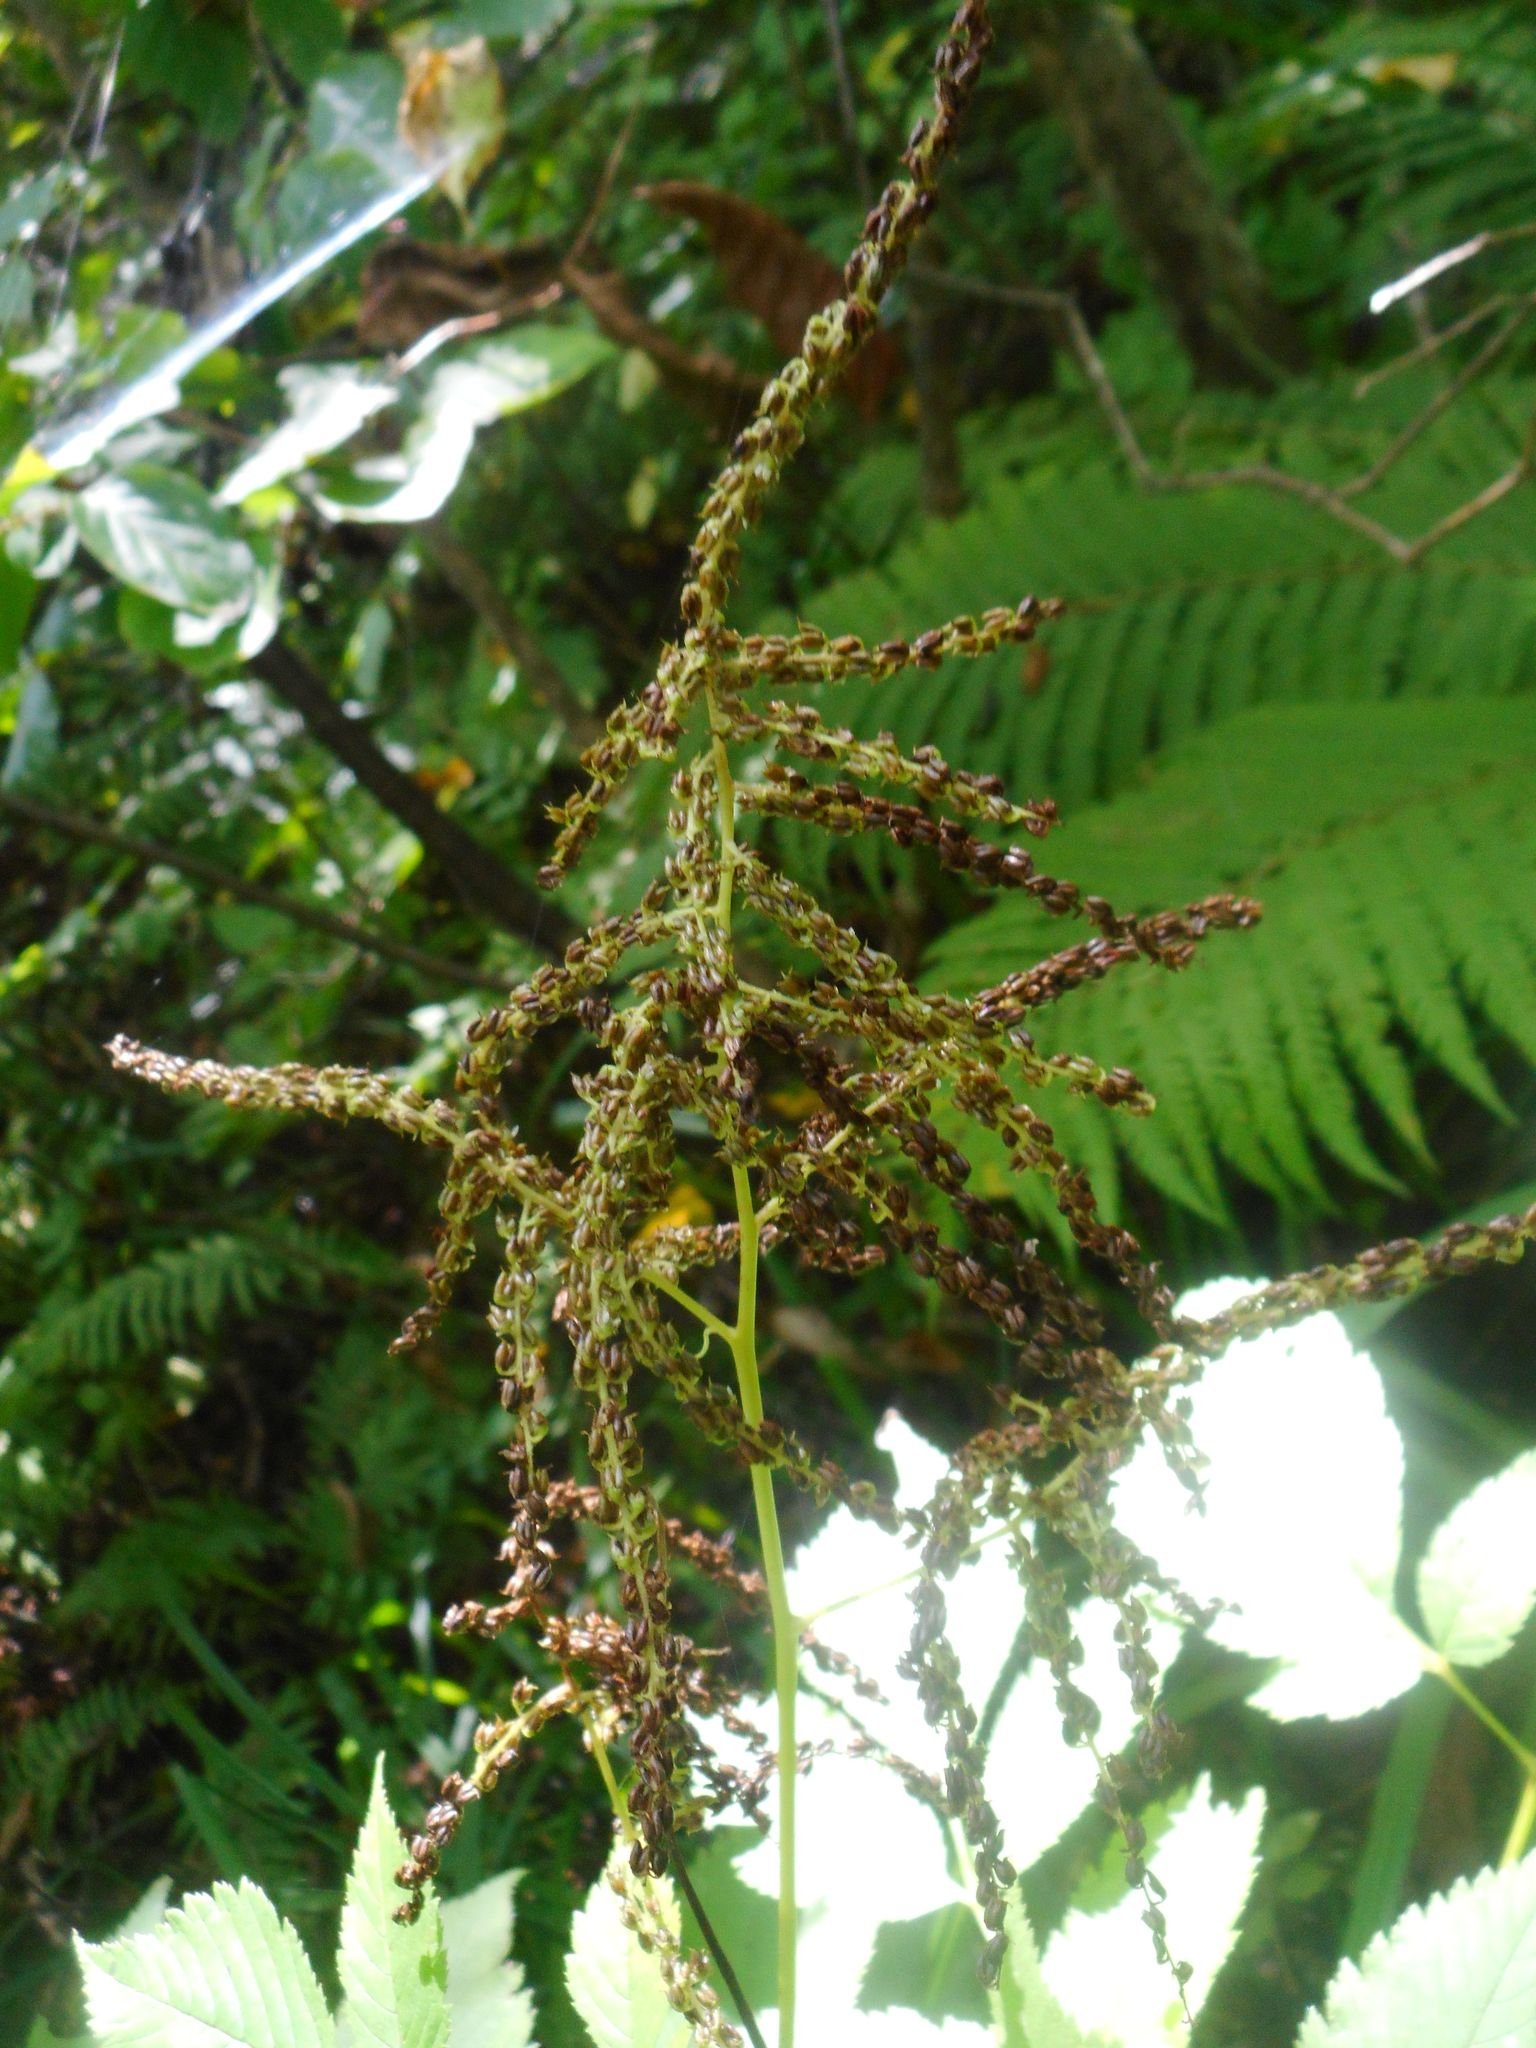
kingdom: Plantae
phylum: Tracheophyta
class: Magnoliopsida
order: Rosales
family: Rosaceae
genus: Aruncus
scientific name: Aruncus dioicus
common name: Buck's-beard
